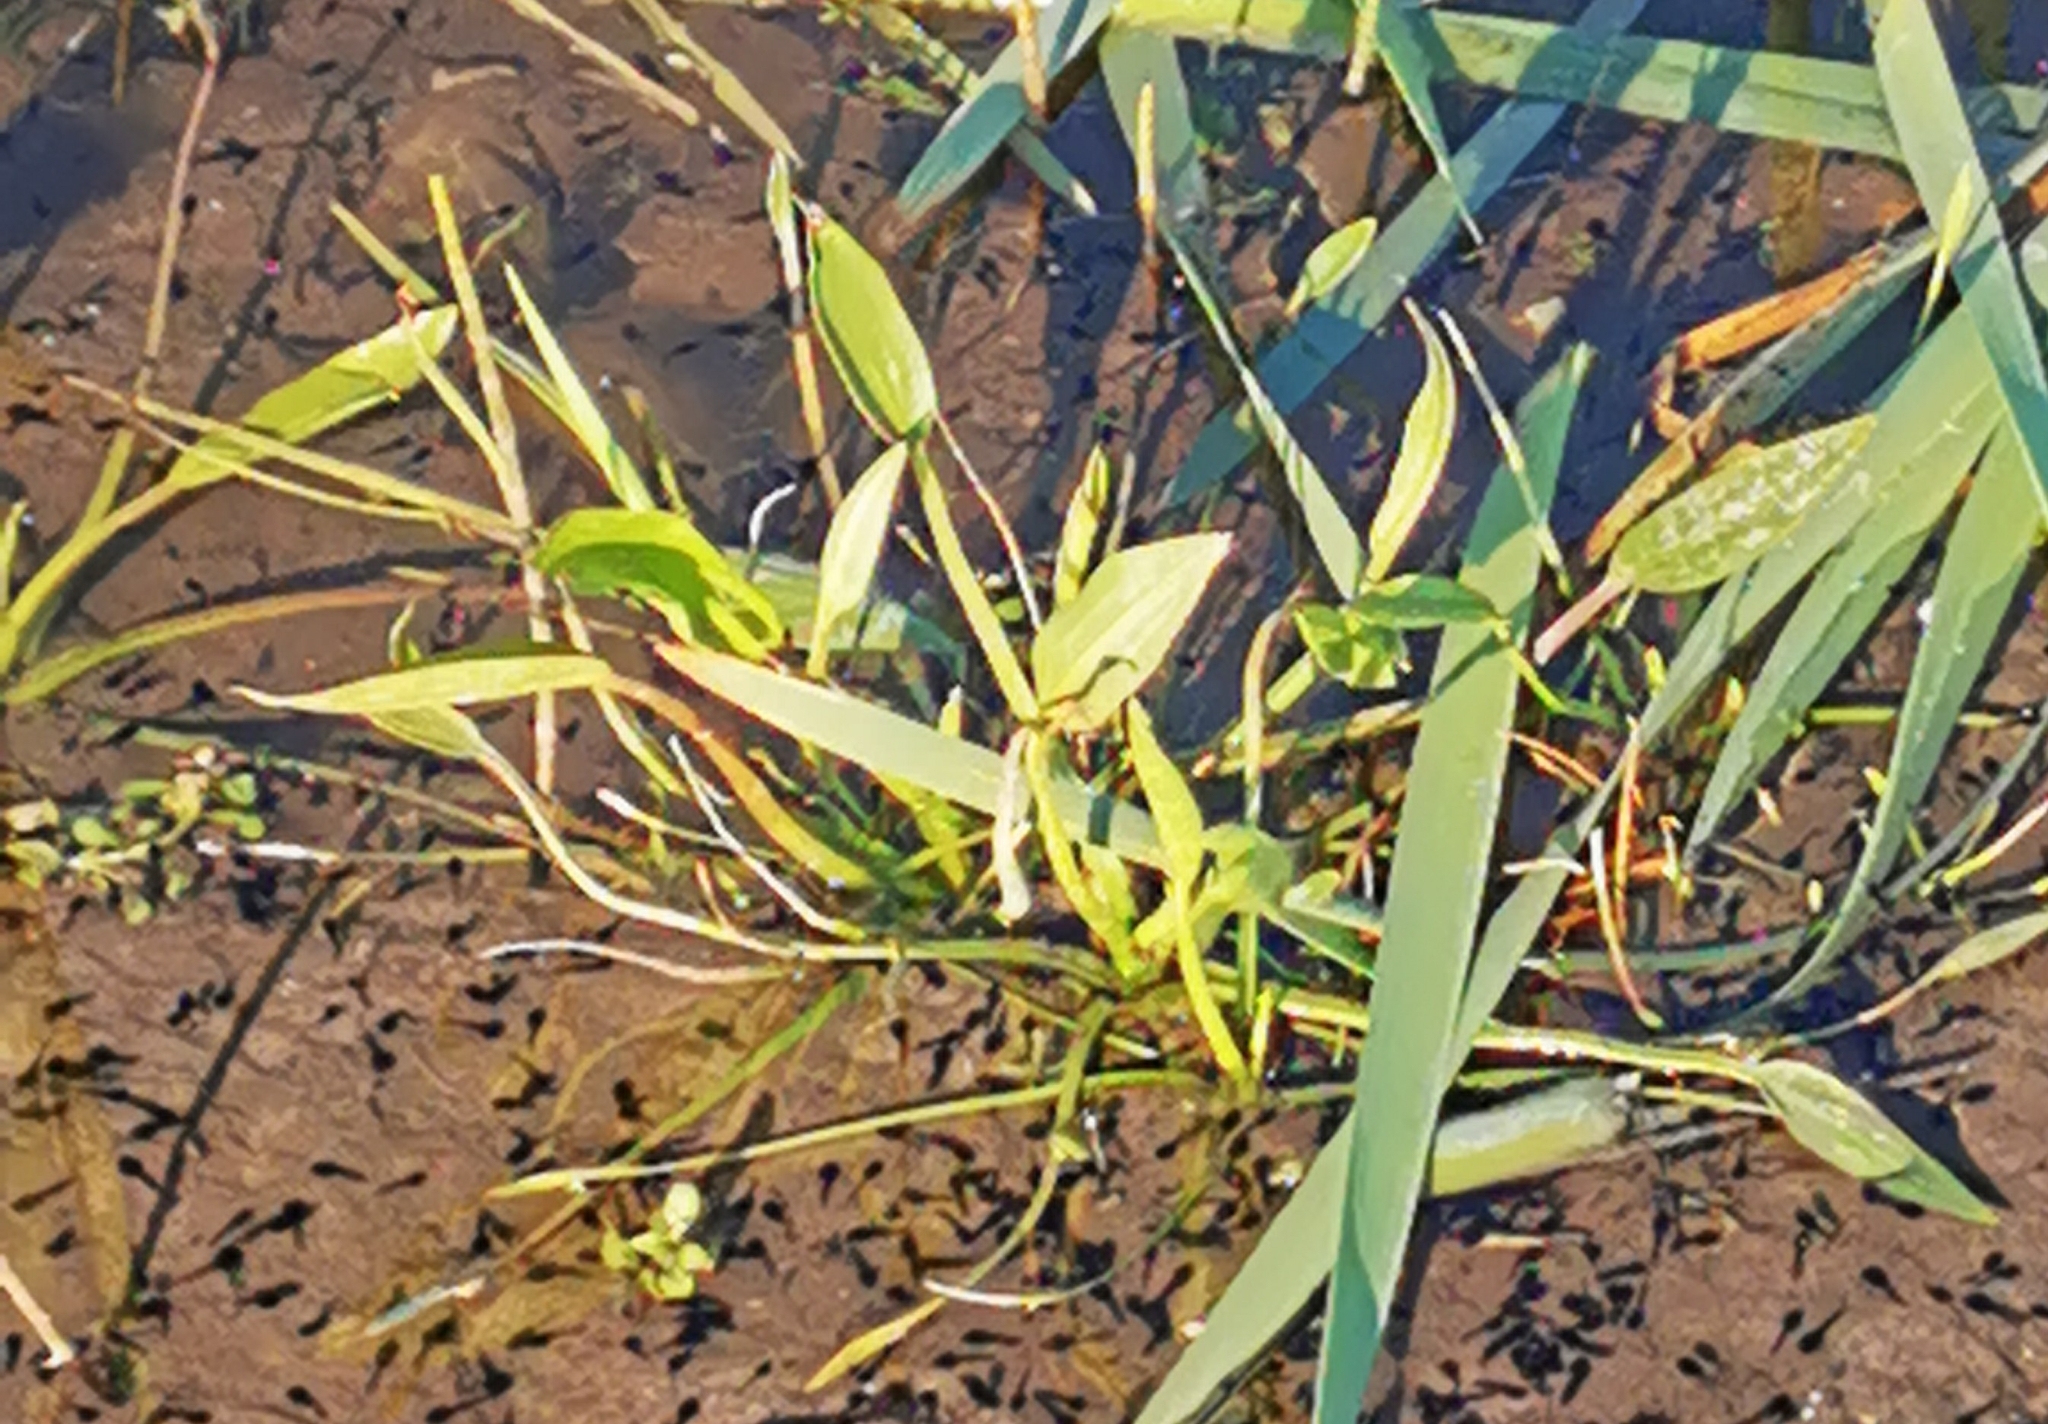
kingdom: Plantae
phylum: Tracheophyta
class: Liliopsida
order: Alismatales
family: Alismataceae
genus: Alisma
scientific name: Alisma plantago-aquatica
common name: Water-plantain
